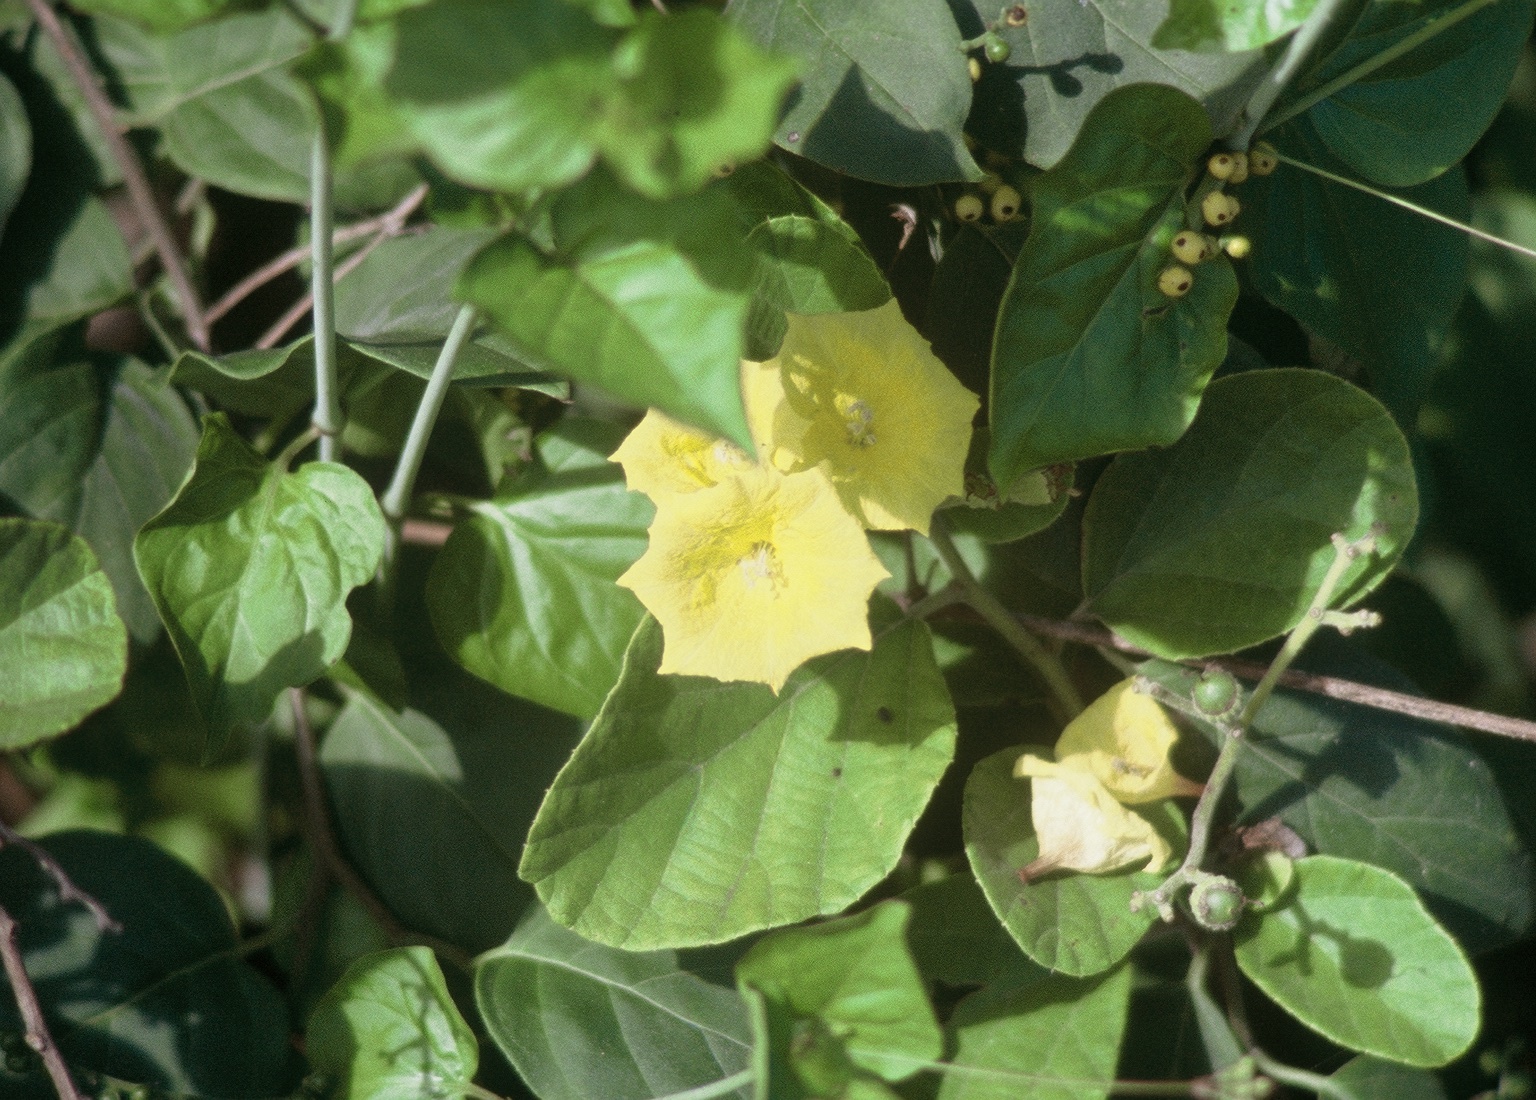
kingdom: Plantae
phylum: Tracheophyta
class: Magnoliopsida
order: Boraginales
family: Cordiaceae
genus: Cordia
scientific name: Cordia lutea
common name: Yellow geiger
